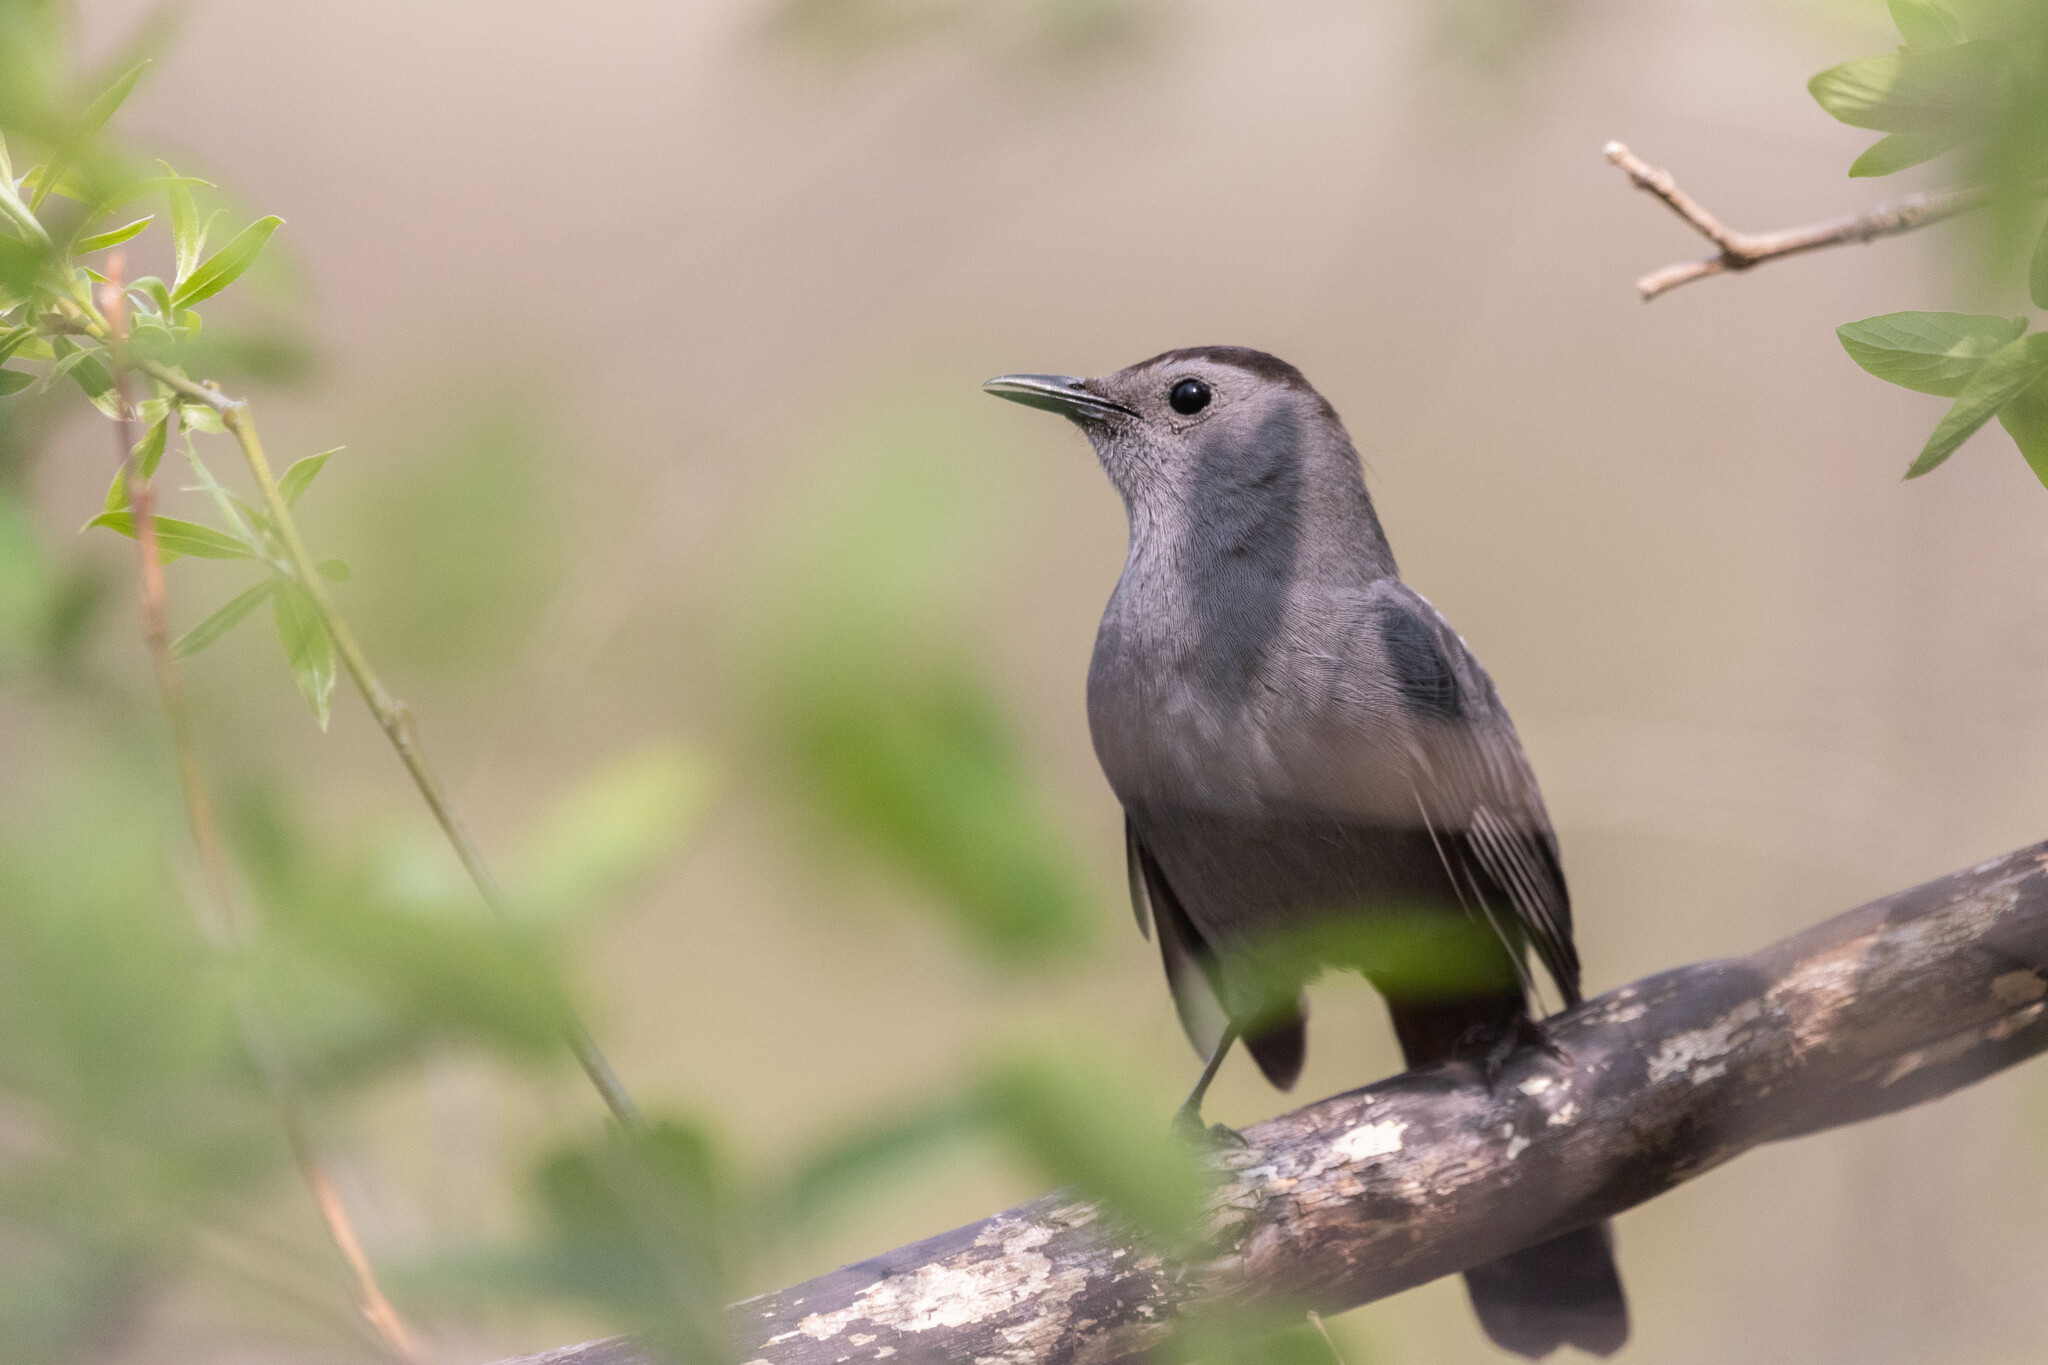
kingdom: Animalia
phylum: Chordata
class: Aves
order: Passeriformes
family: Mimidae
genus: Dumetella
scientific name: Dumetella carolinensis
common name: Gray catbird
